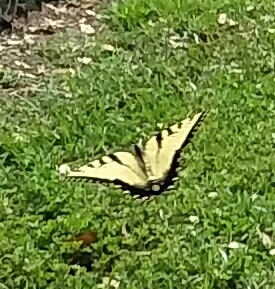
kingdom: Animalia
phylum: Arthropoda
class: Insecta
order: Lepidoptera
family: Papilionidae
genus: Papilio
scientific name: Papilio glaucus
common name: Tiger swallowtail
